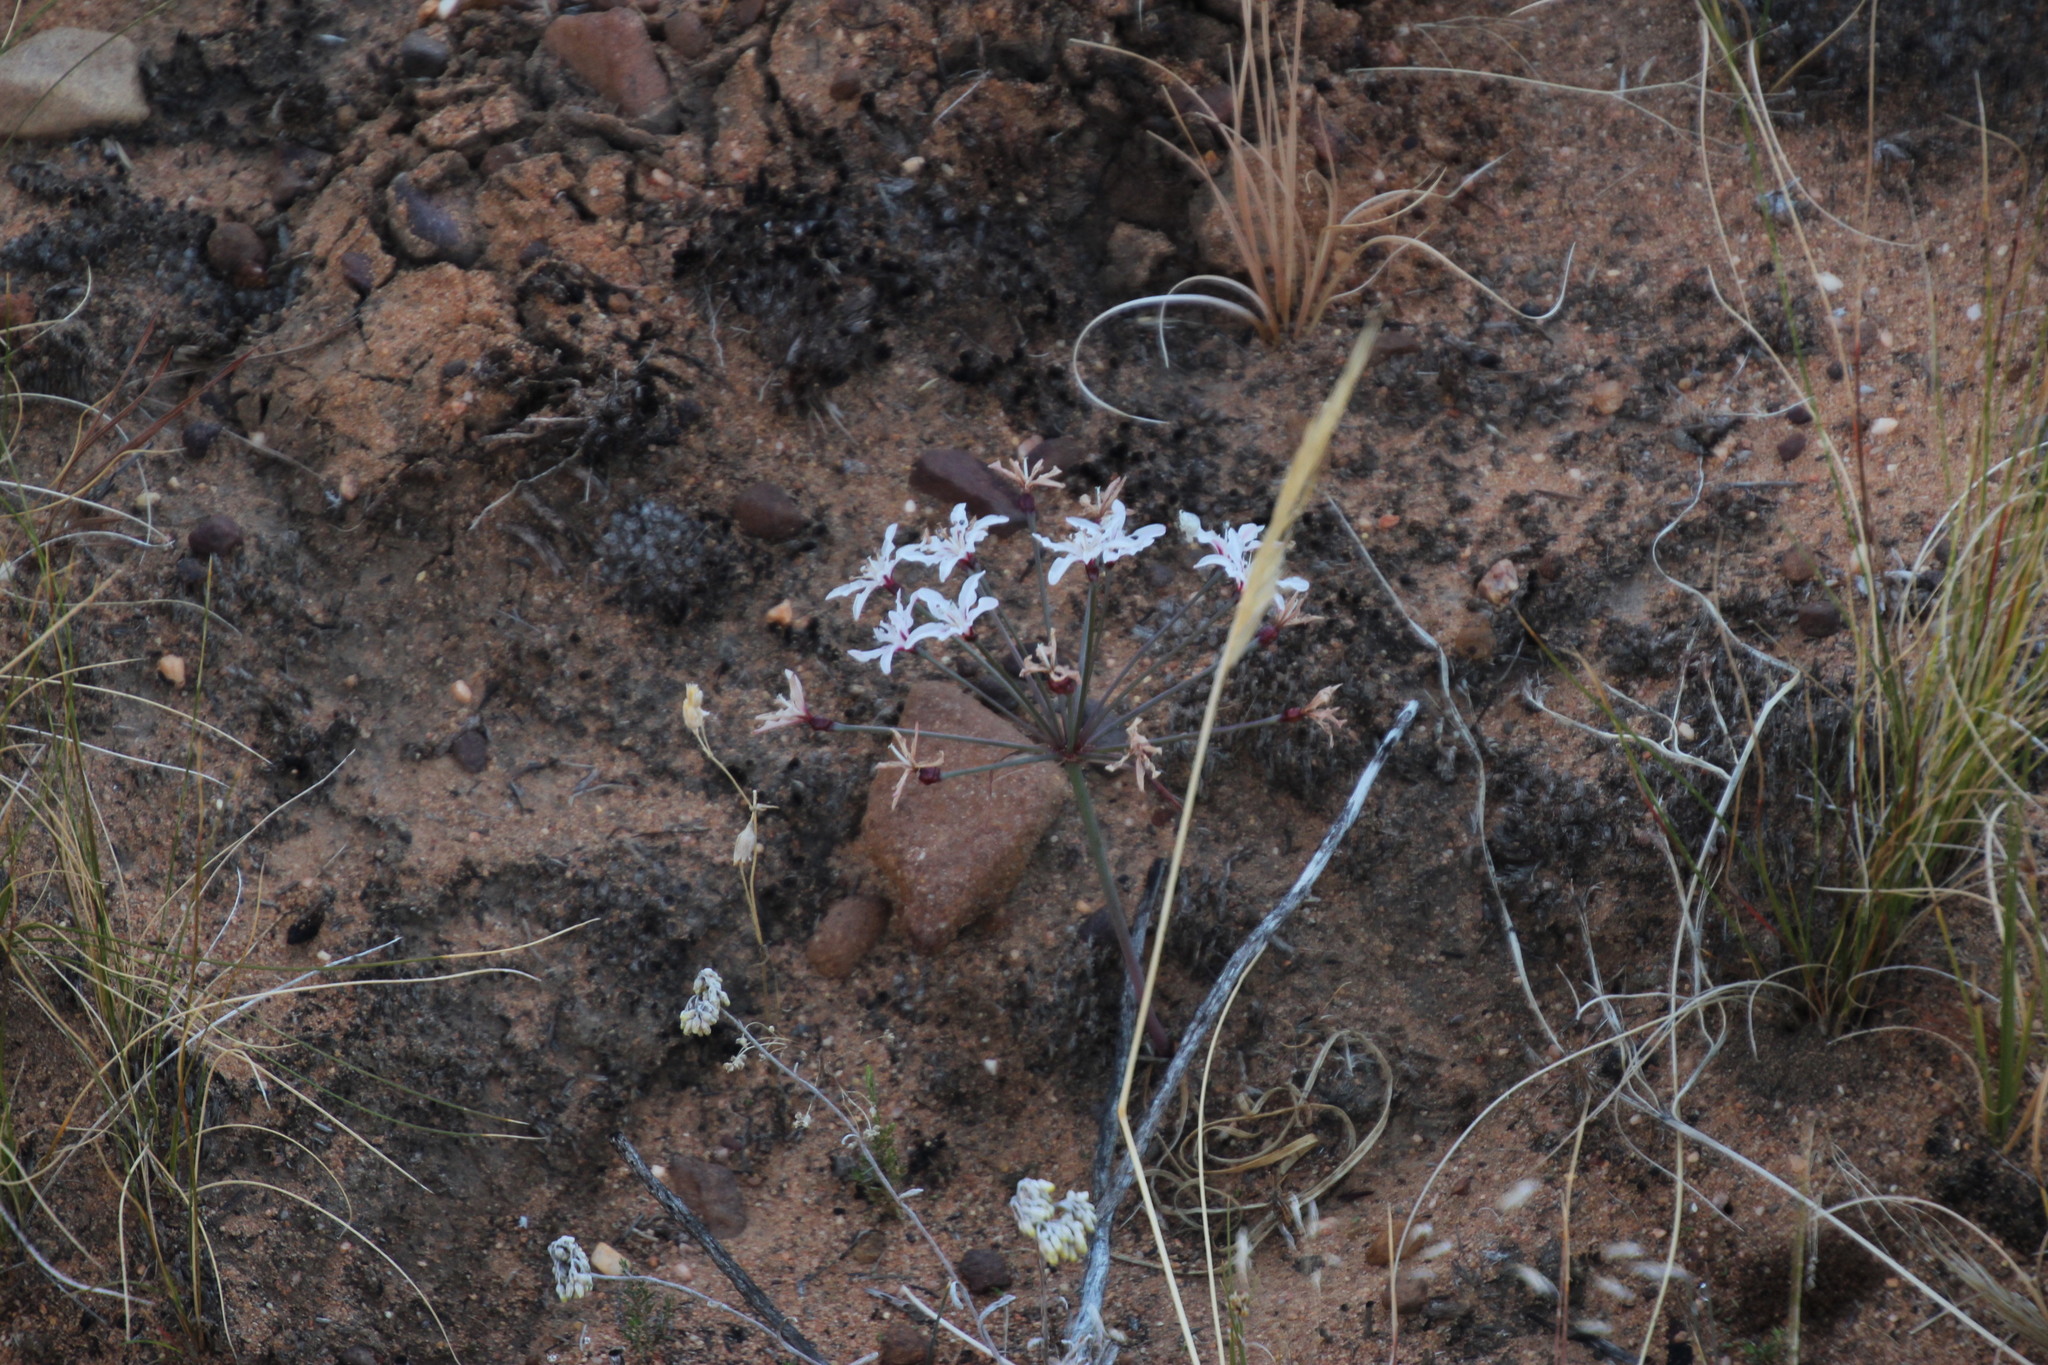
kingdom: Plantae
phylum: Tracheophyta
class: Liliopsida
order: Asparagales
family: Amaryllidaceae
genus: Hessea
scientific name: Hessea monticola
